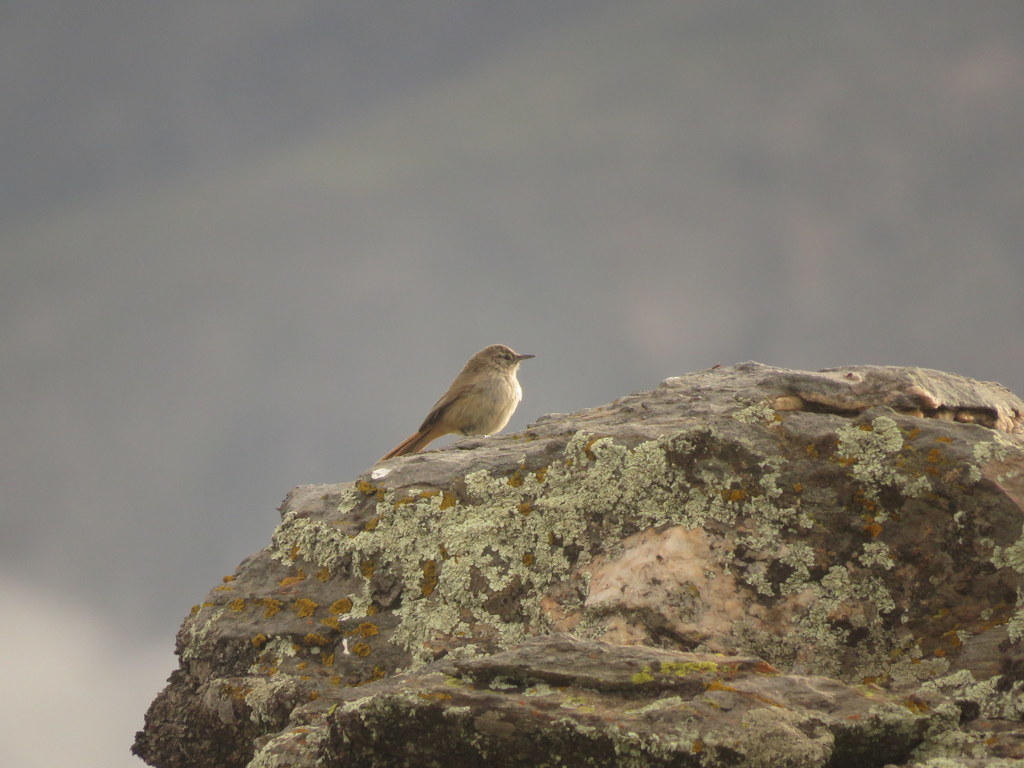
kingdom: Animalia
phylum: Chordata
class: Aves
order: Passeriformes
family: Furnariidae
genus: Asthenes
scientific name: Asthenes modesta
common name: Cordilleran canastero
